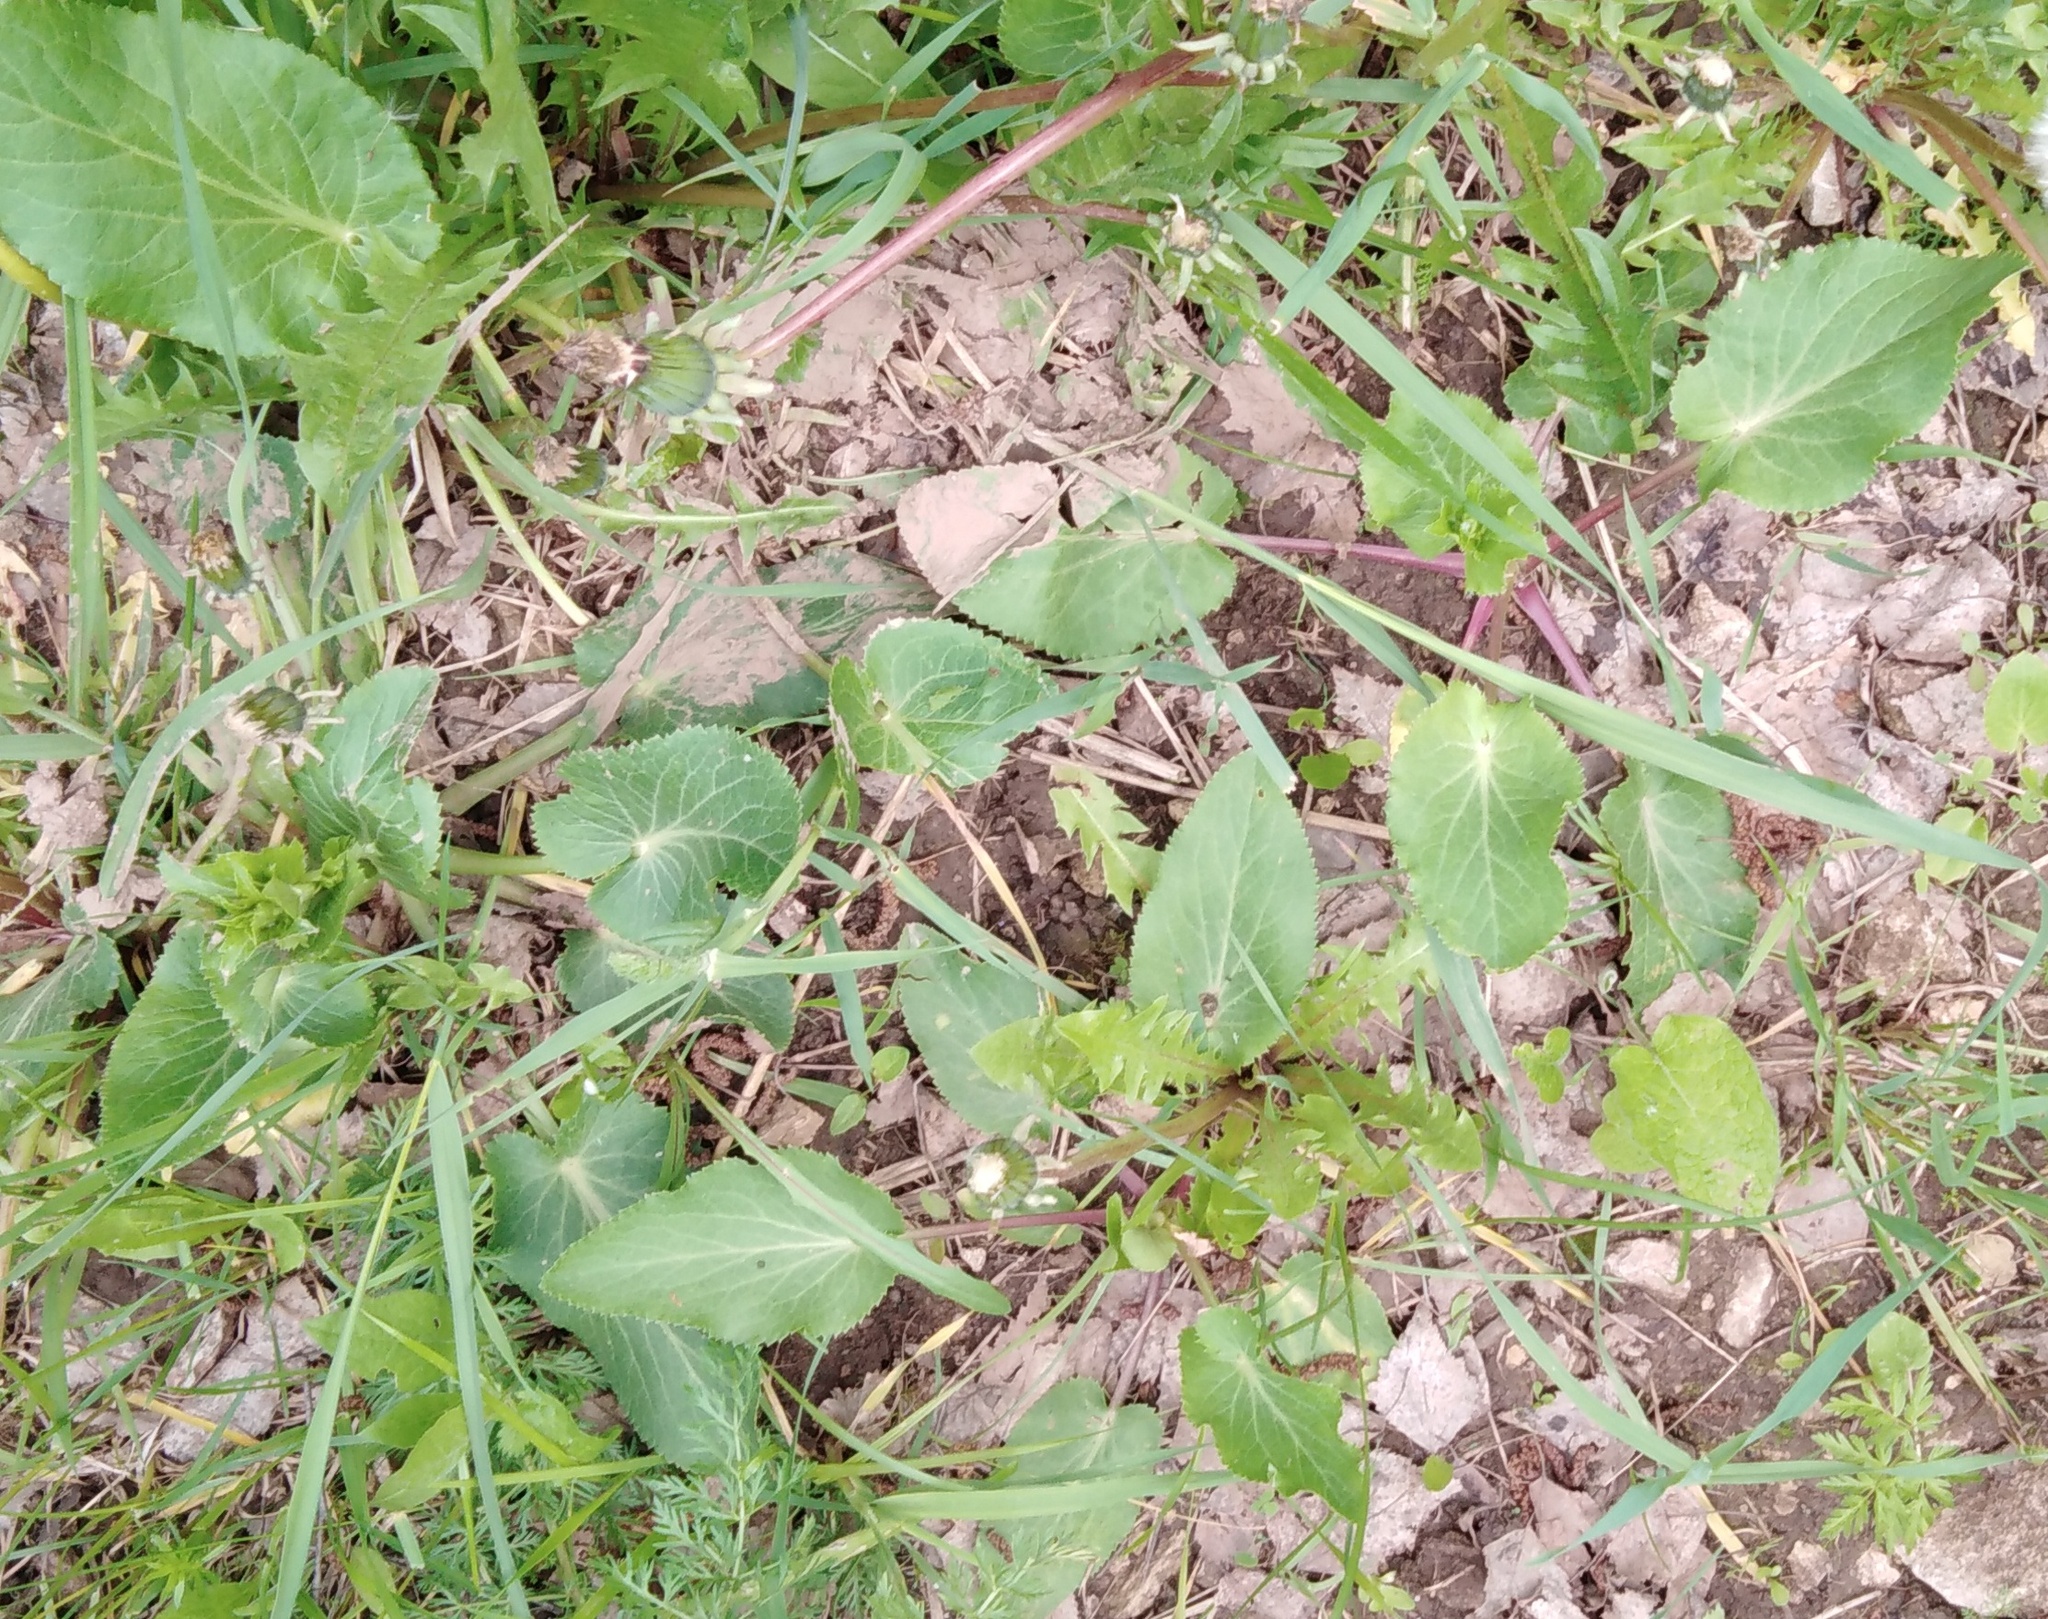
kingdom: Plantae
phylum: Tracheophyta
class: Magnoliopsida
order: Apiales
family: Apiaceae
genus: Eryngium
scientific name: Eryngium planum
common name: Blue eryngo
